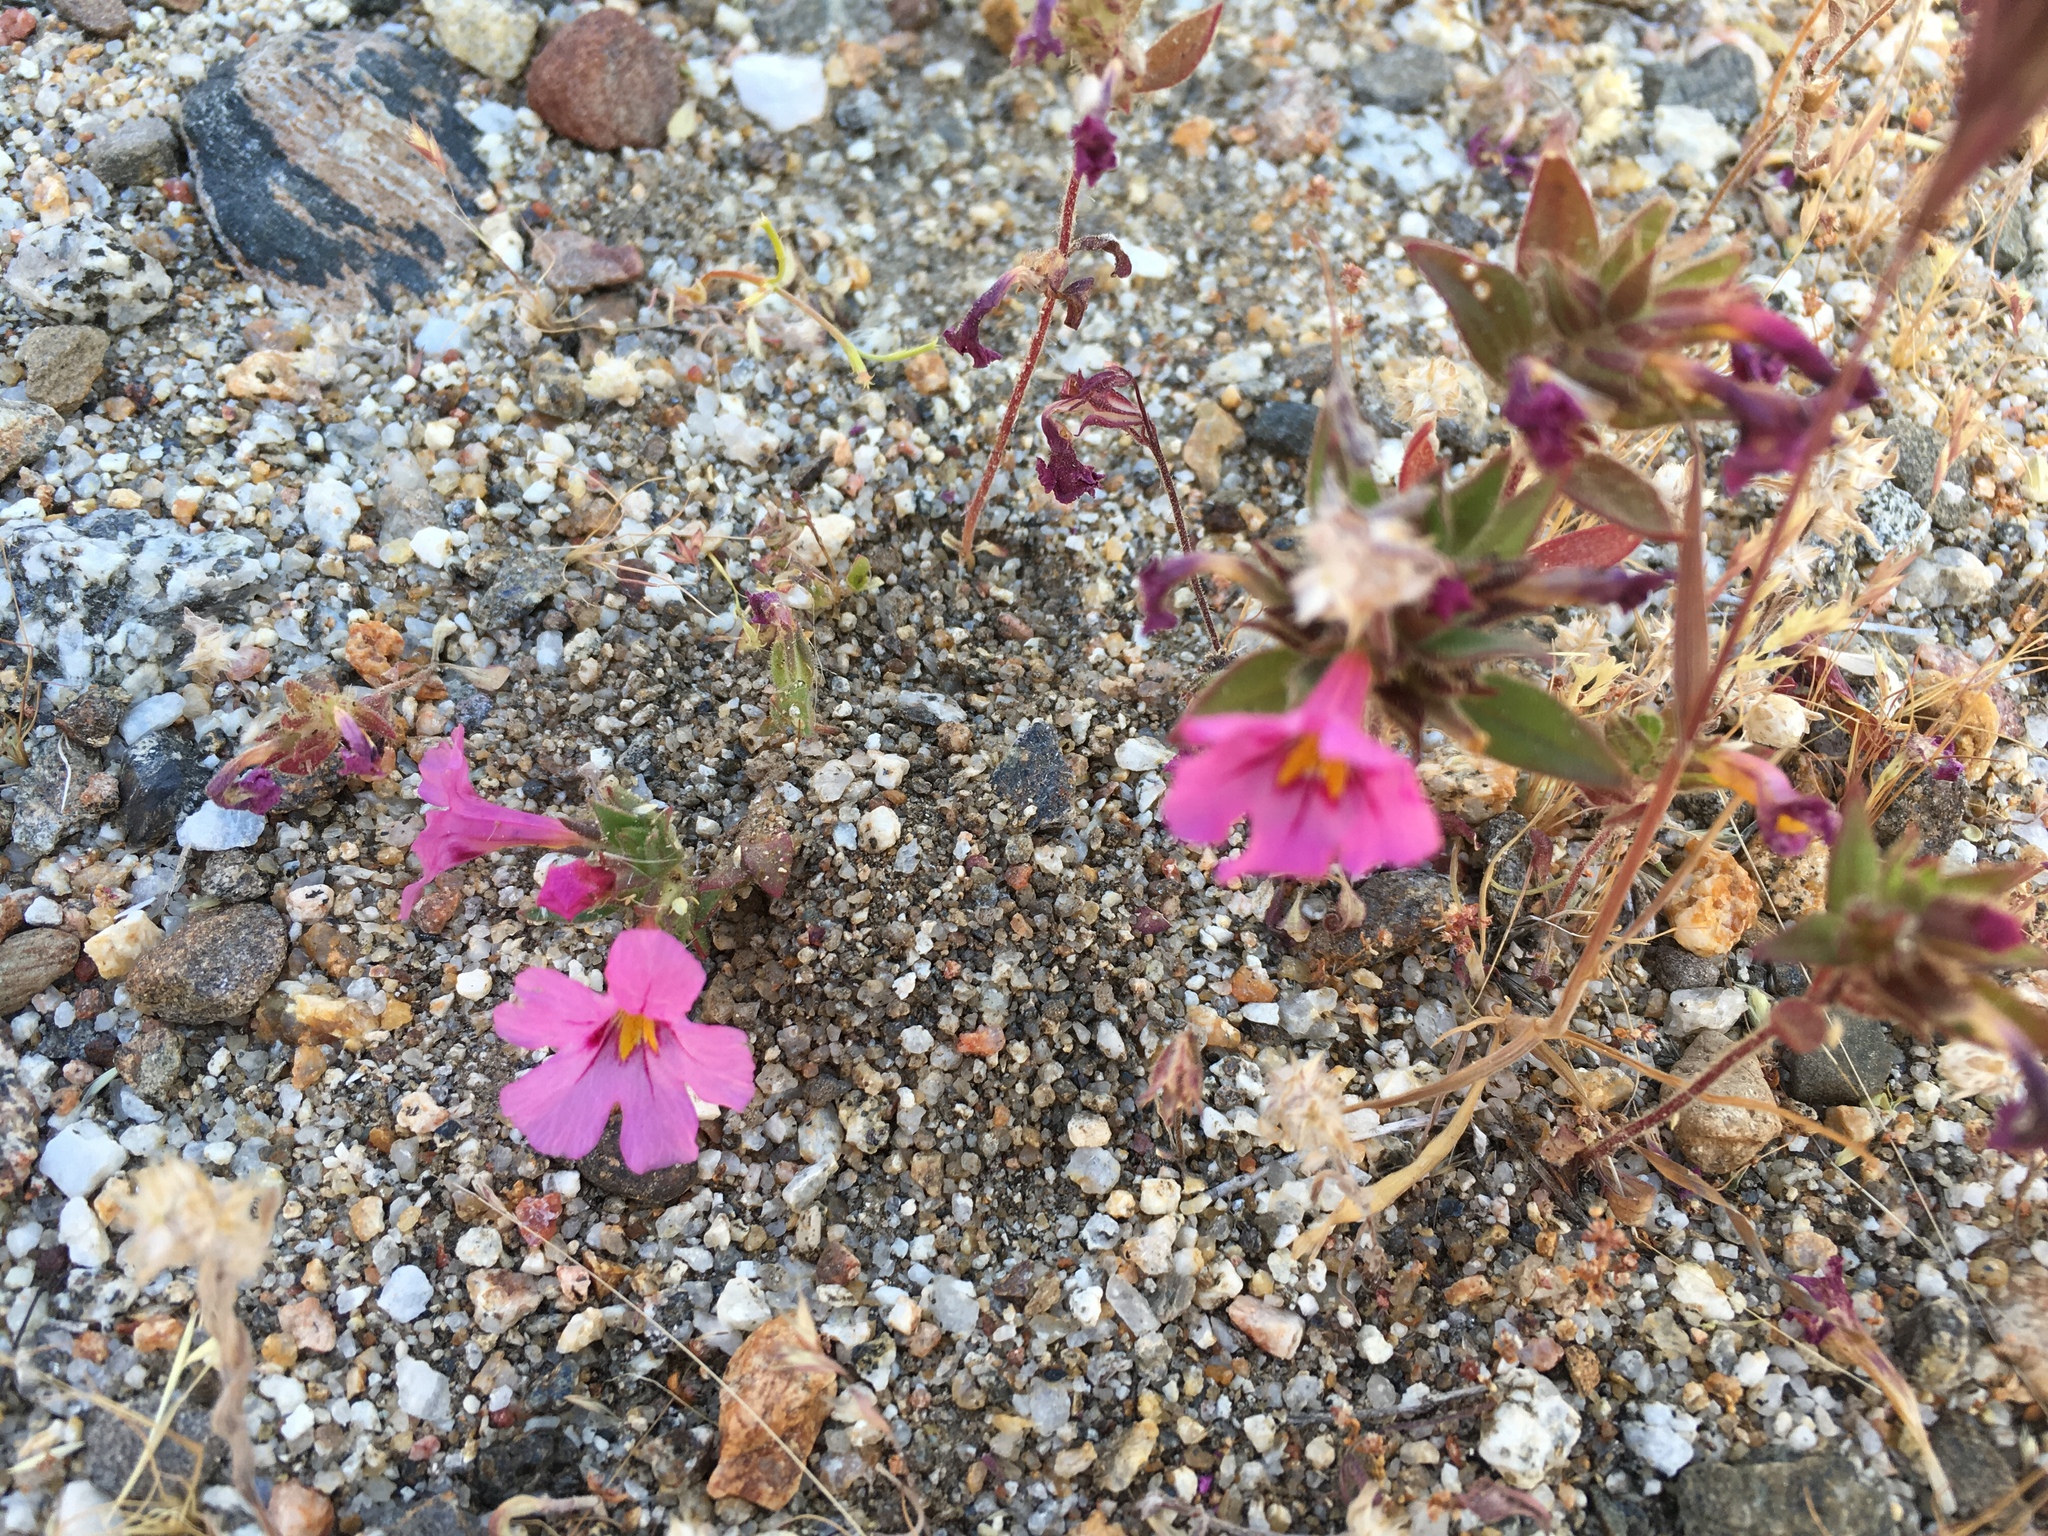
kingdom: Plantae
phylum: Tracheophyta
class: Magnoliopsida
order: Lamiales
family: Phrymaceae
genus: Diplacus
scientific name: Diplacus bigelovii
